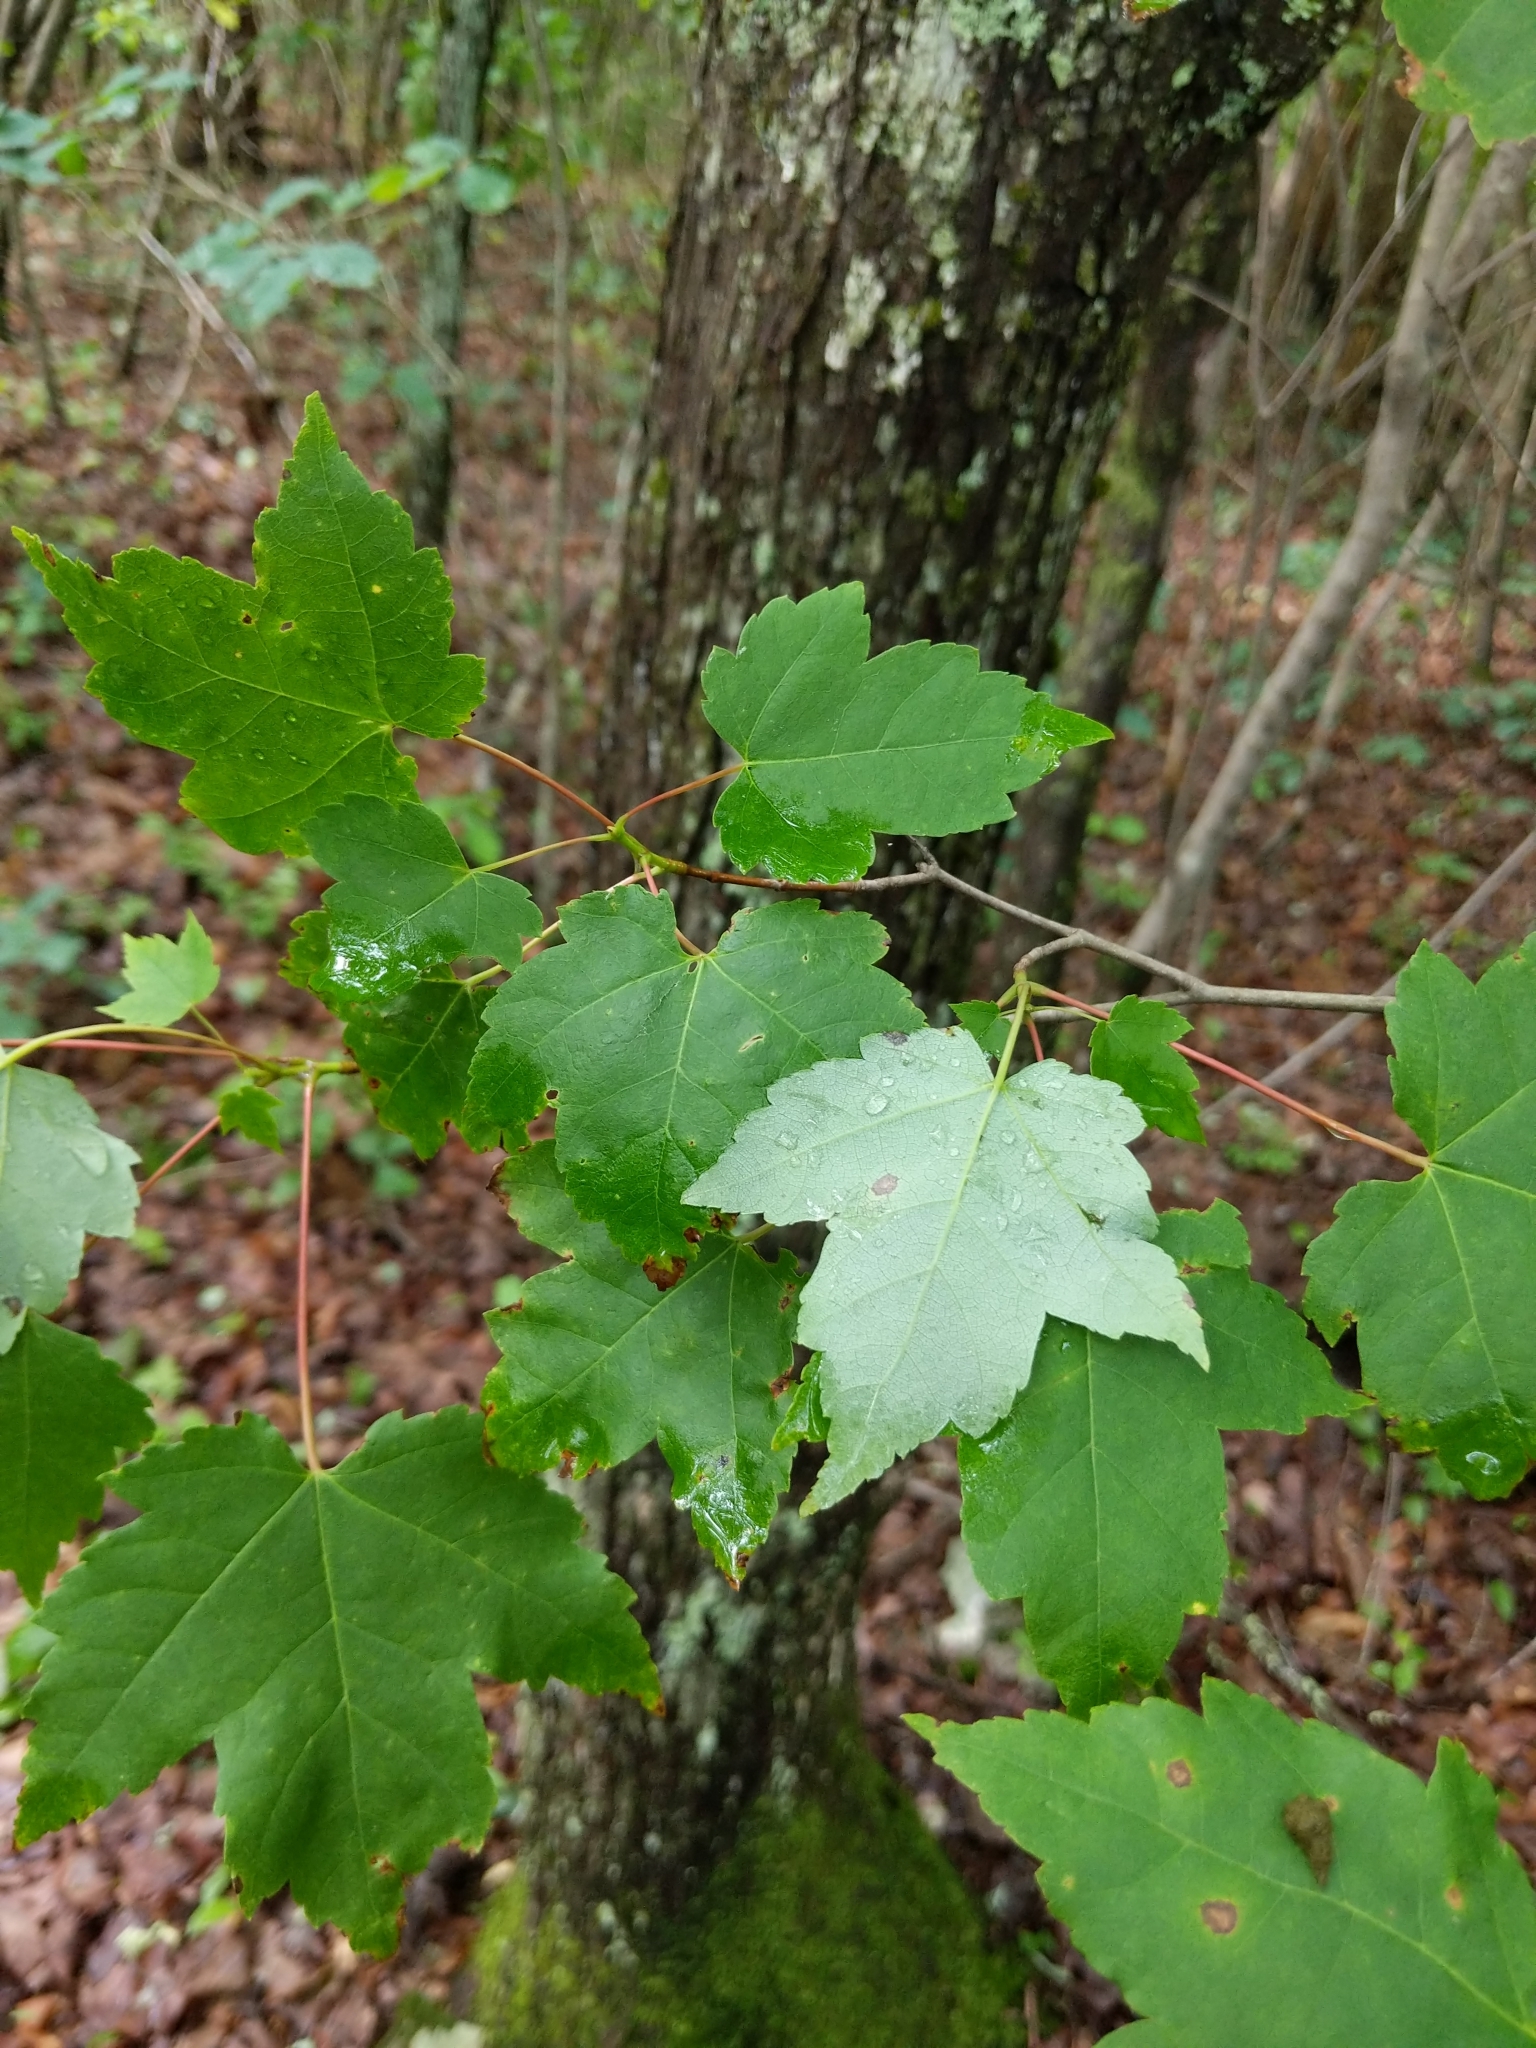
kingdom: Plantae
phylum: Tracheophyta
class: Magnoliopsida
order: Sapindales
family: Sapindaceae
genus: Acer
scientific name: Acer rubrum
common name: Red maple
